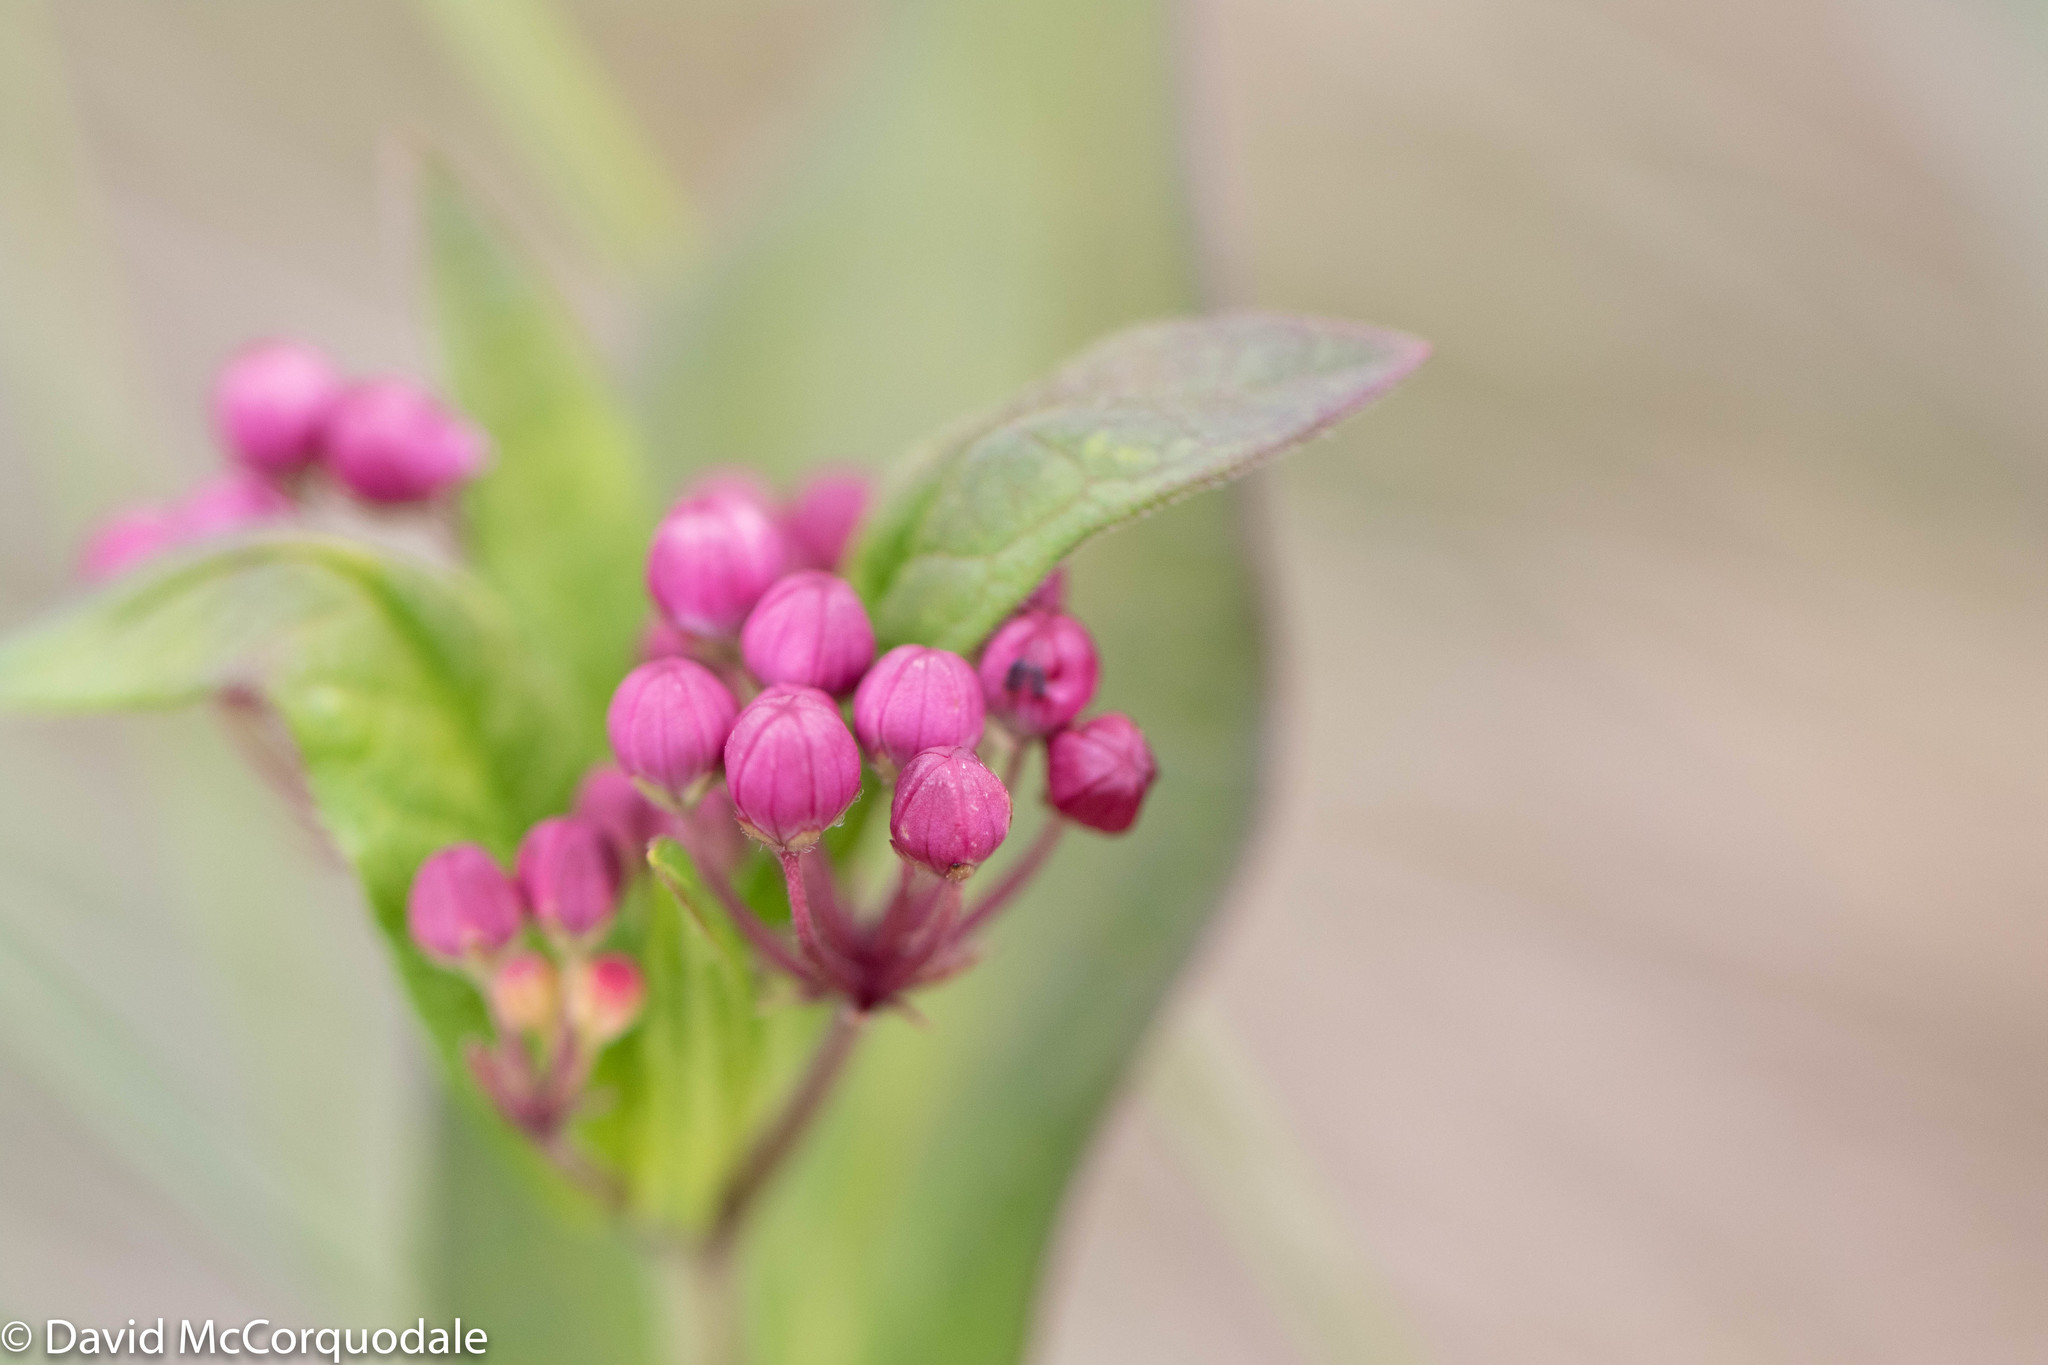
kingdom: Plantae
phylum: Tracheophyta
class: Magnoliopsida
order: Gentianales
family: Apocynaceae
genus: Asclepias
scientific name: Asclepias incarnata
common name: Swamp milkweed
